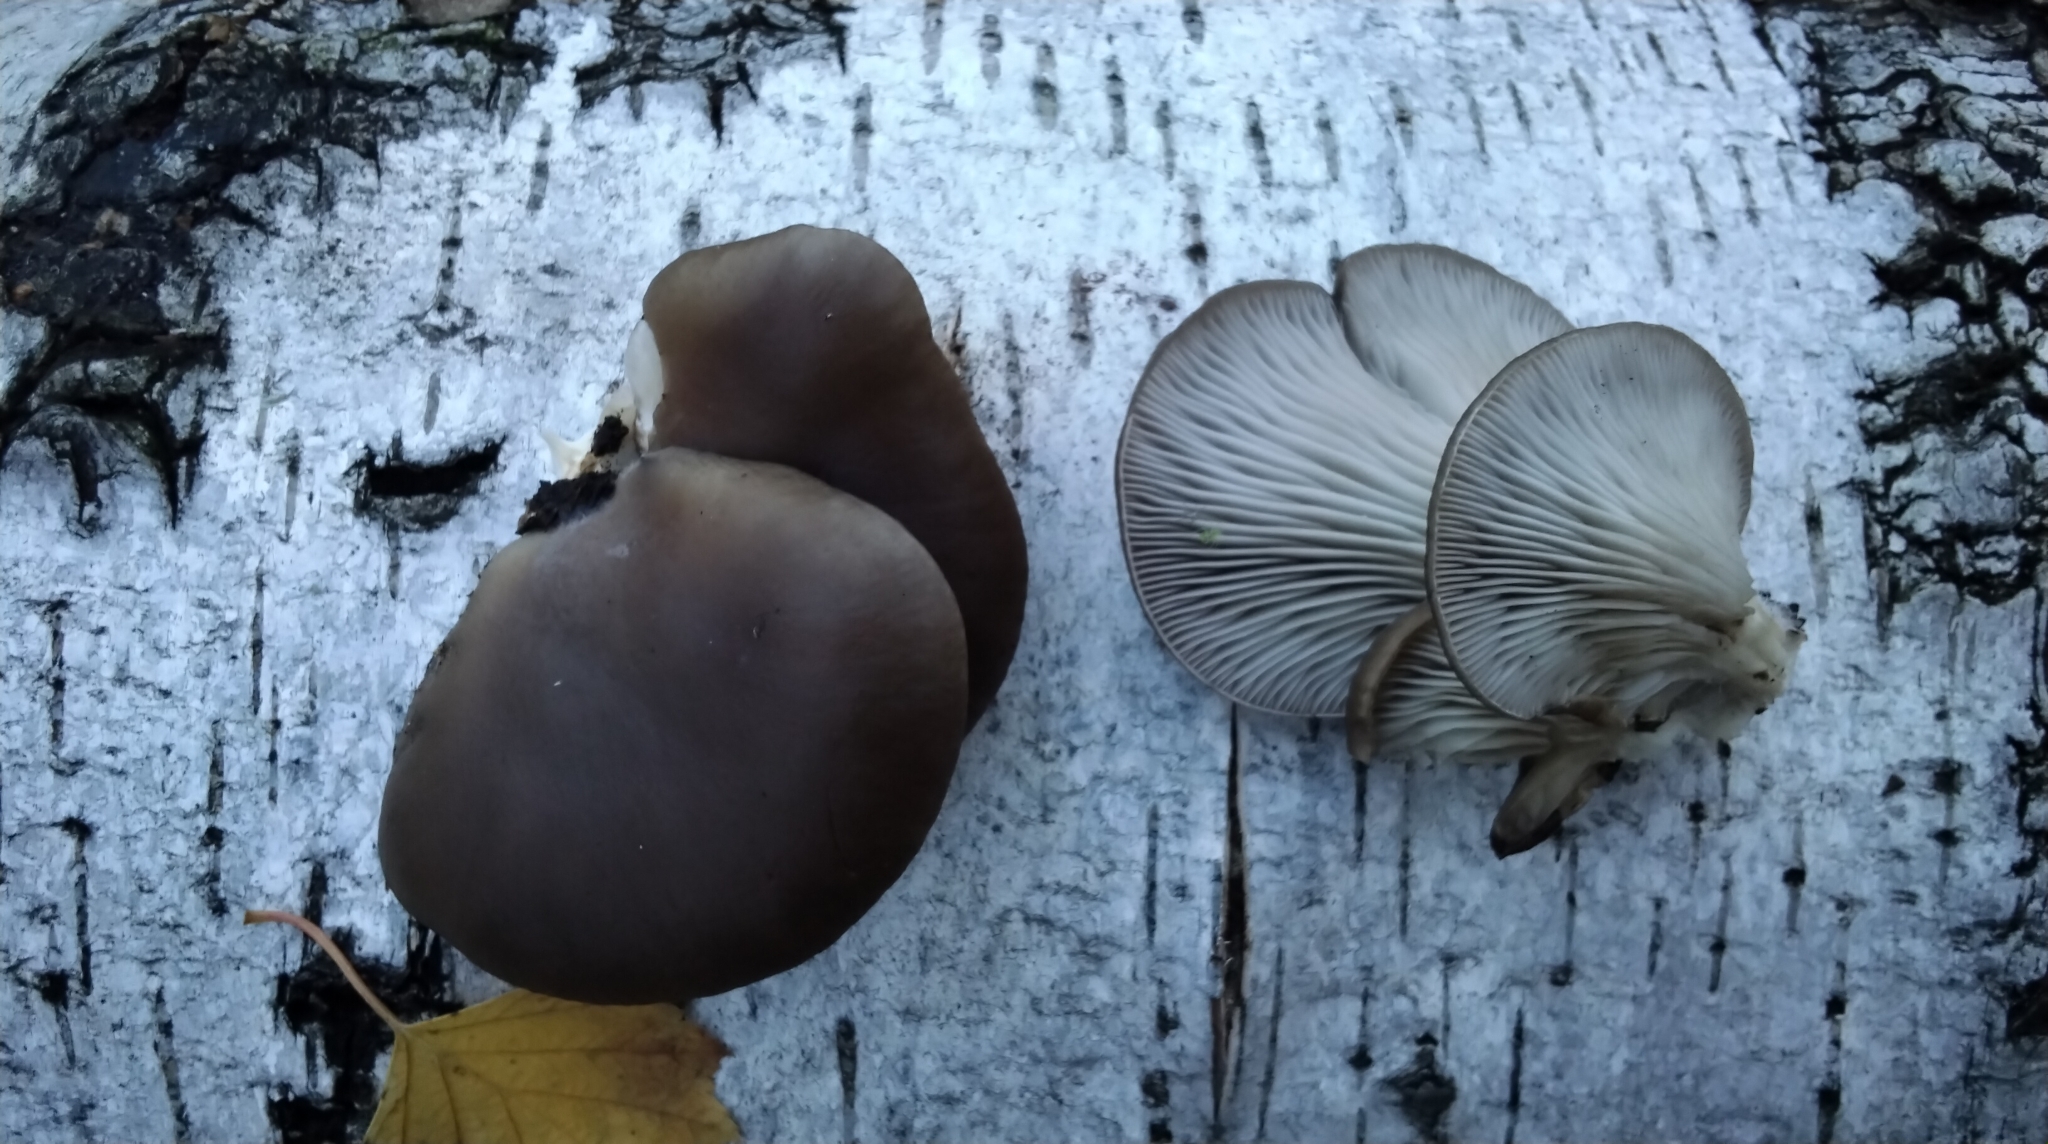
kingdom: Fungi
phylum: Basidiomycota
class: Agaricomycetes
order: Agaricales
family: Pleurotaceae
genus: Pleurotus
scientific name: Pleurotus ostreatus
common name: Oyster mushroom
